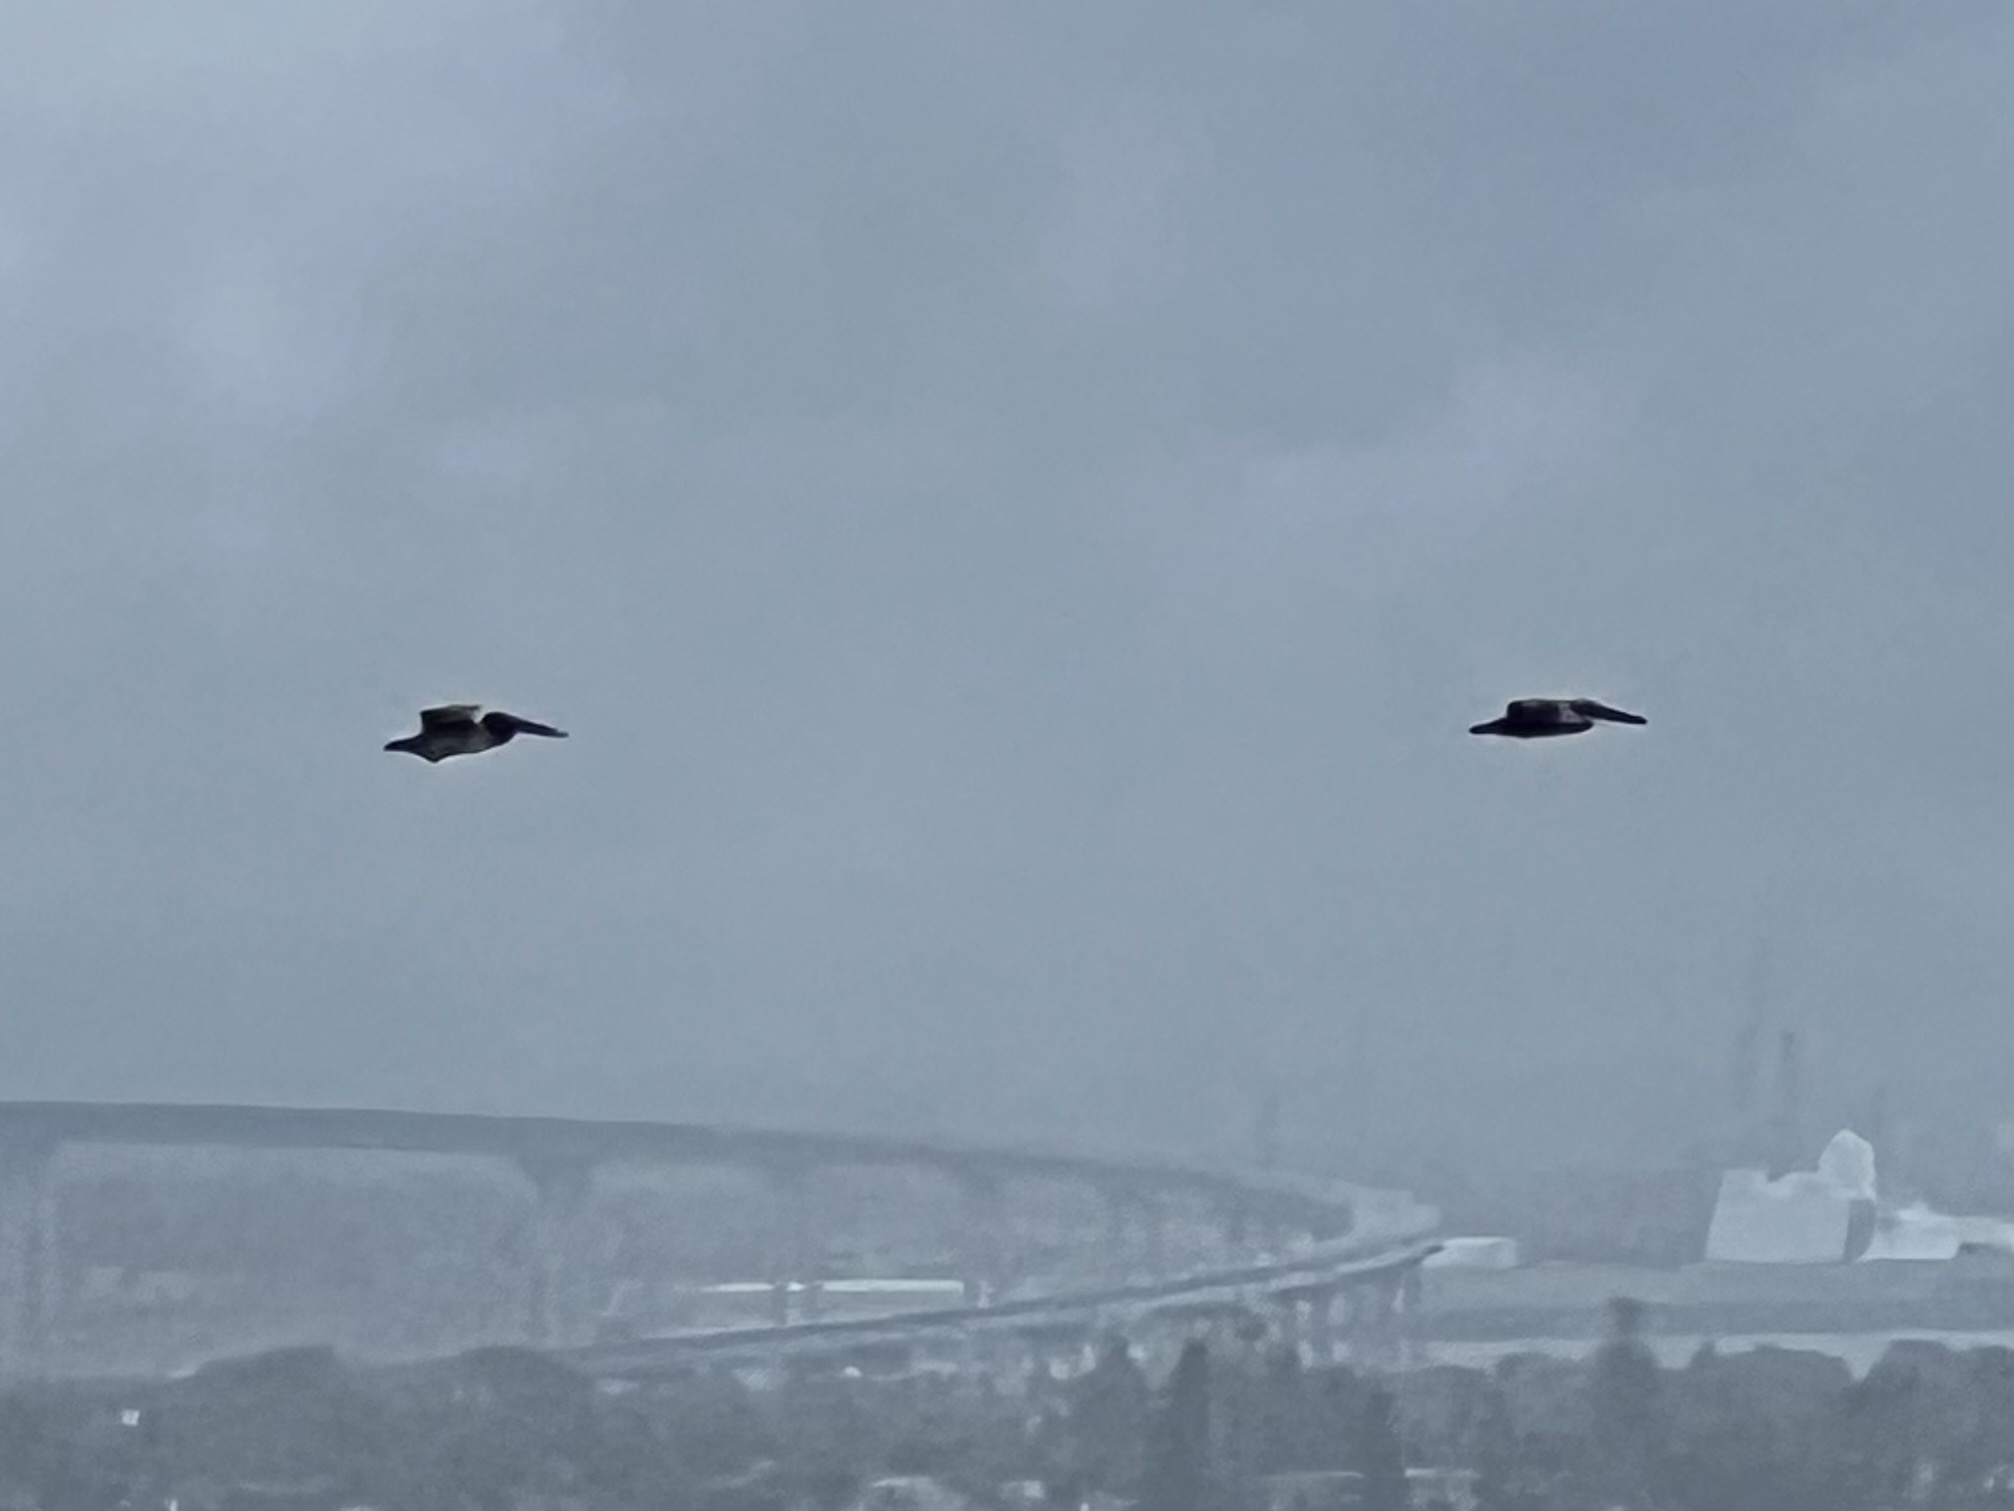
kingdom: Animalia
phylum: Chordata
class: Aves
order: Pelecaniformes
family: Pelecanidae
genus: Pelecanus
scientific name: Pelecanus occidentalis
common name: Brown pelican
